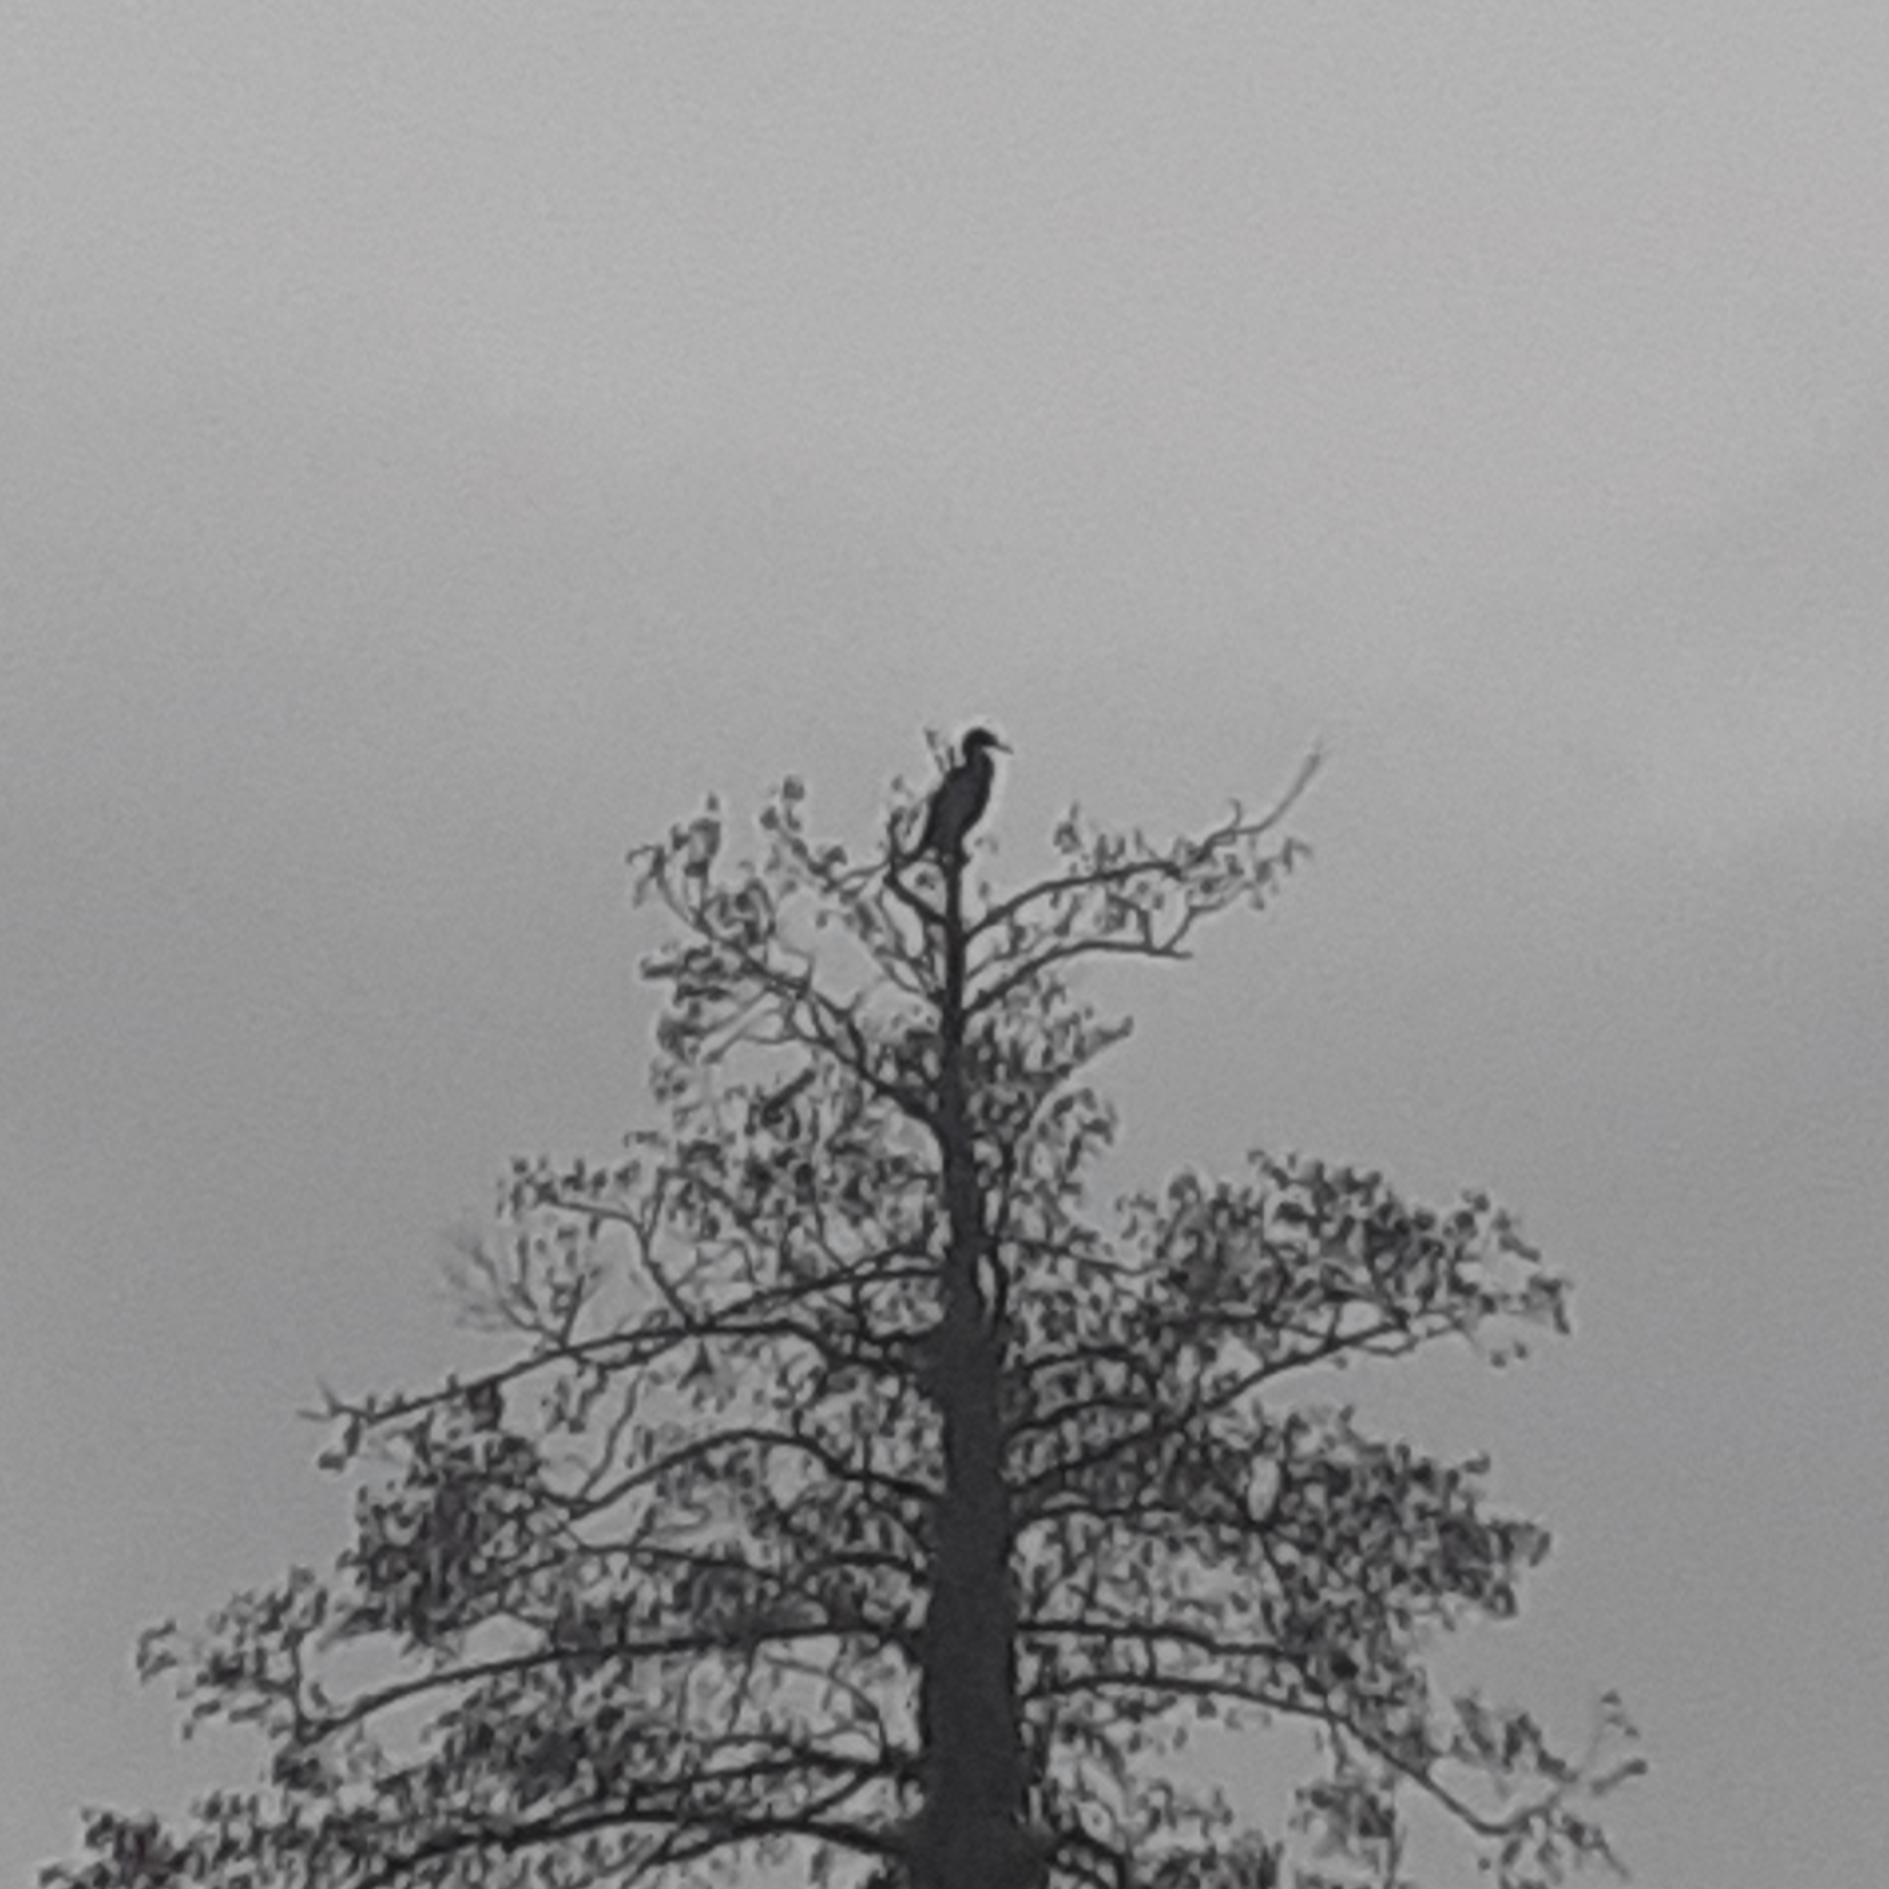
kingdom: Animalia
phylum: Chordata
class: Aves
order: Suliformes
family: Phalacrocoracidae
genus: Phalacrocorax
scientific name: Phalacrocorax carbo
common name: Great cormorant
